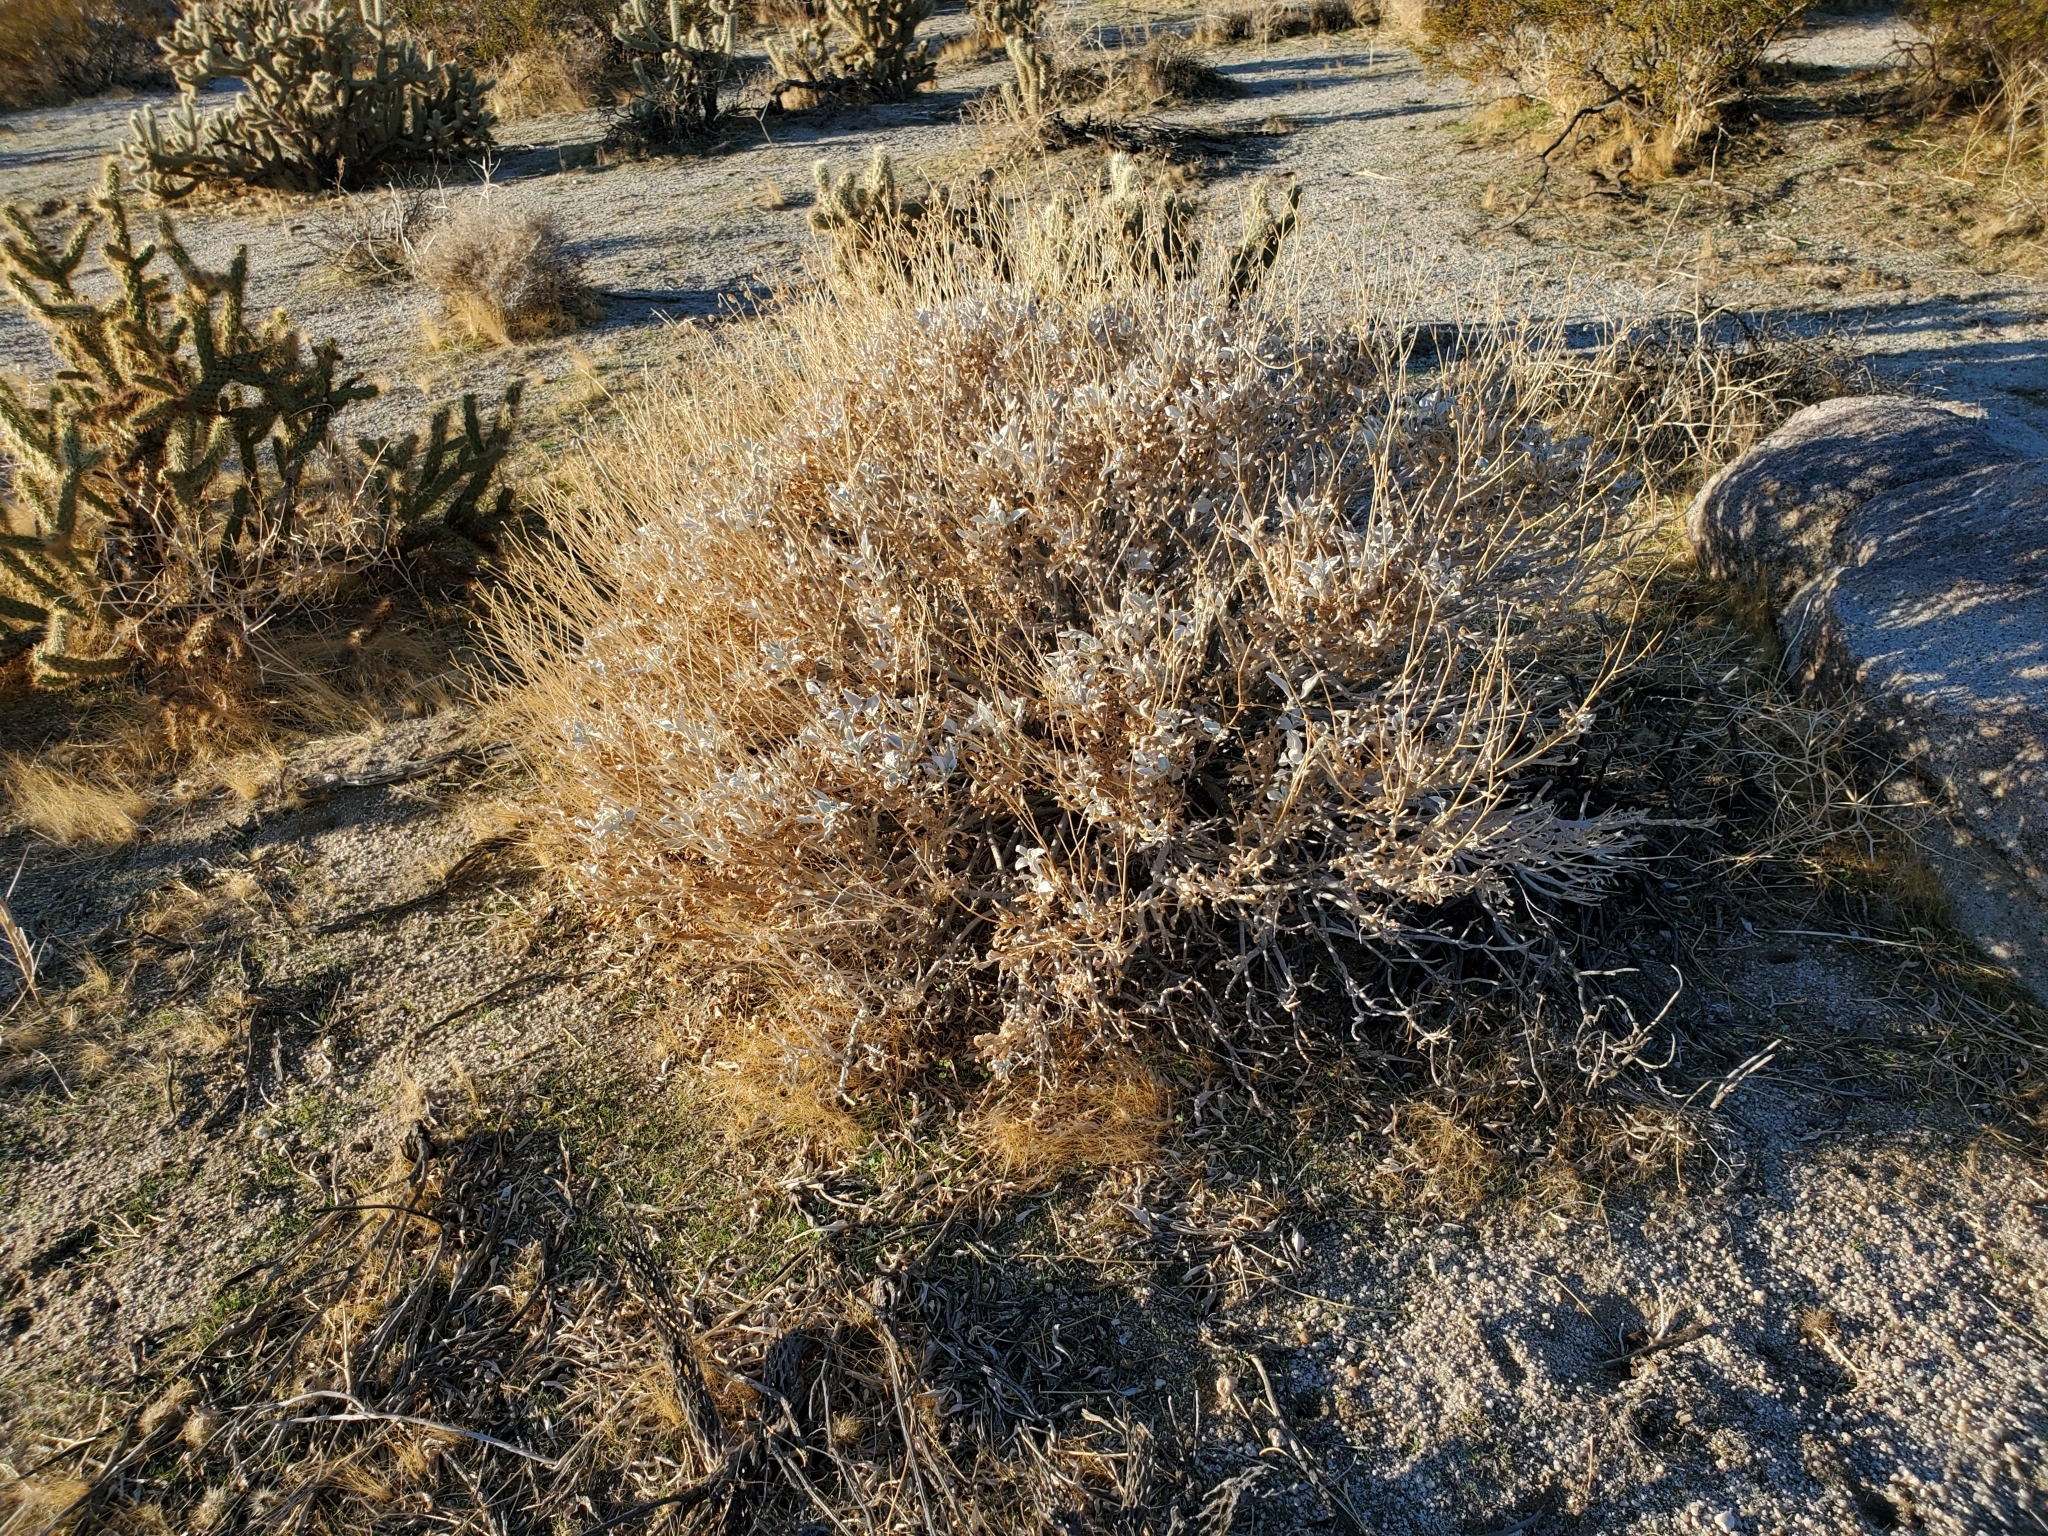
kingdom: Plantae
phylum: Tracheophyta
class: Magnoliopsida
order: Asterales
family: Asteraceae
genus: Encelia
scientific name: Encelia farinosa
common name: Brittlebush
